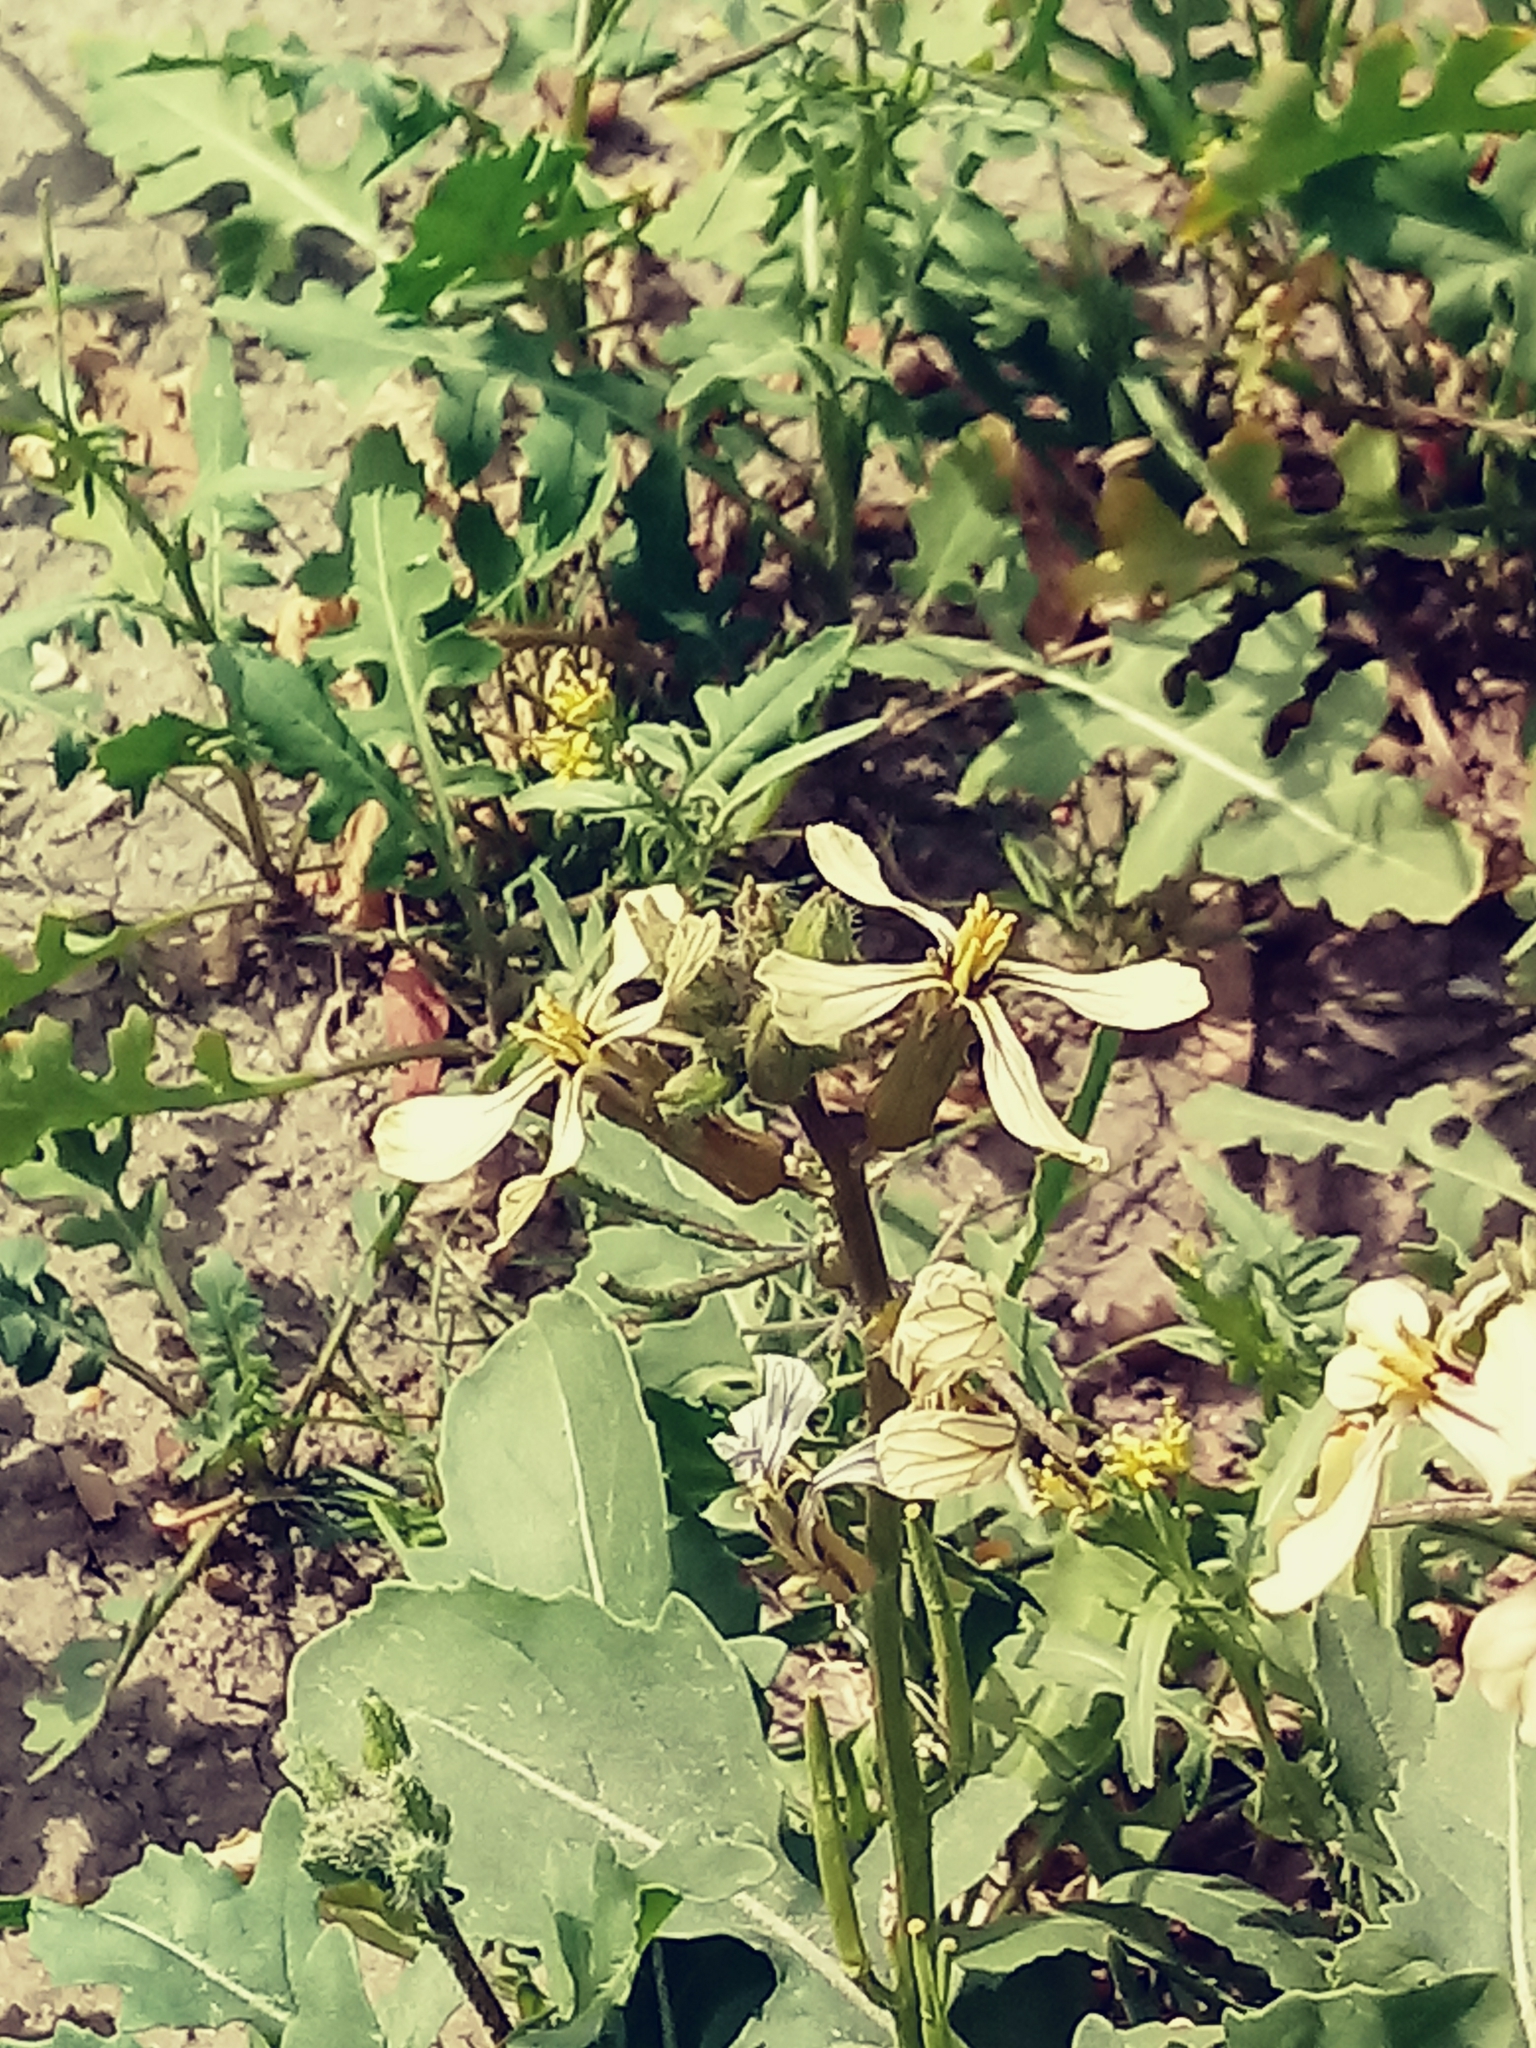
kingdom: Plantae
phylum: Tracheophyta
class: Magnoliopsida
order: Brassicales
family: Brassicaceae
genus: Eruca
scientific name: Eruca vesicaria
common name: Garden rocket
